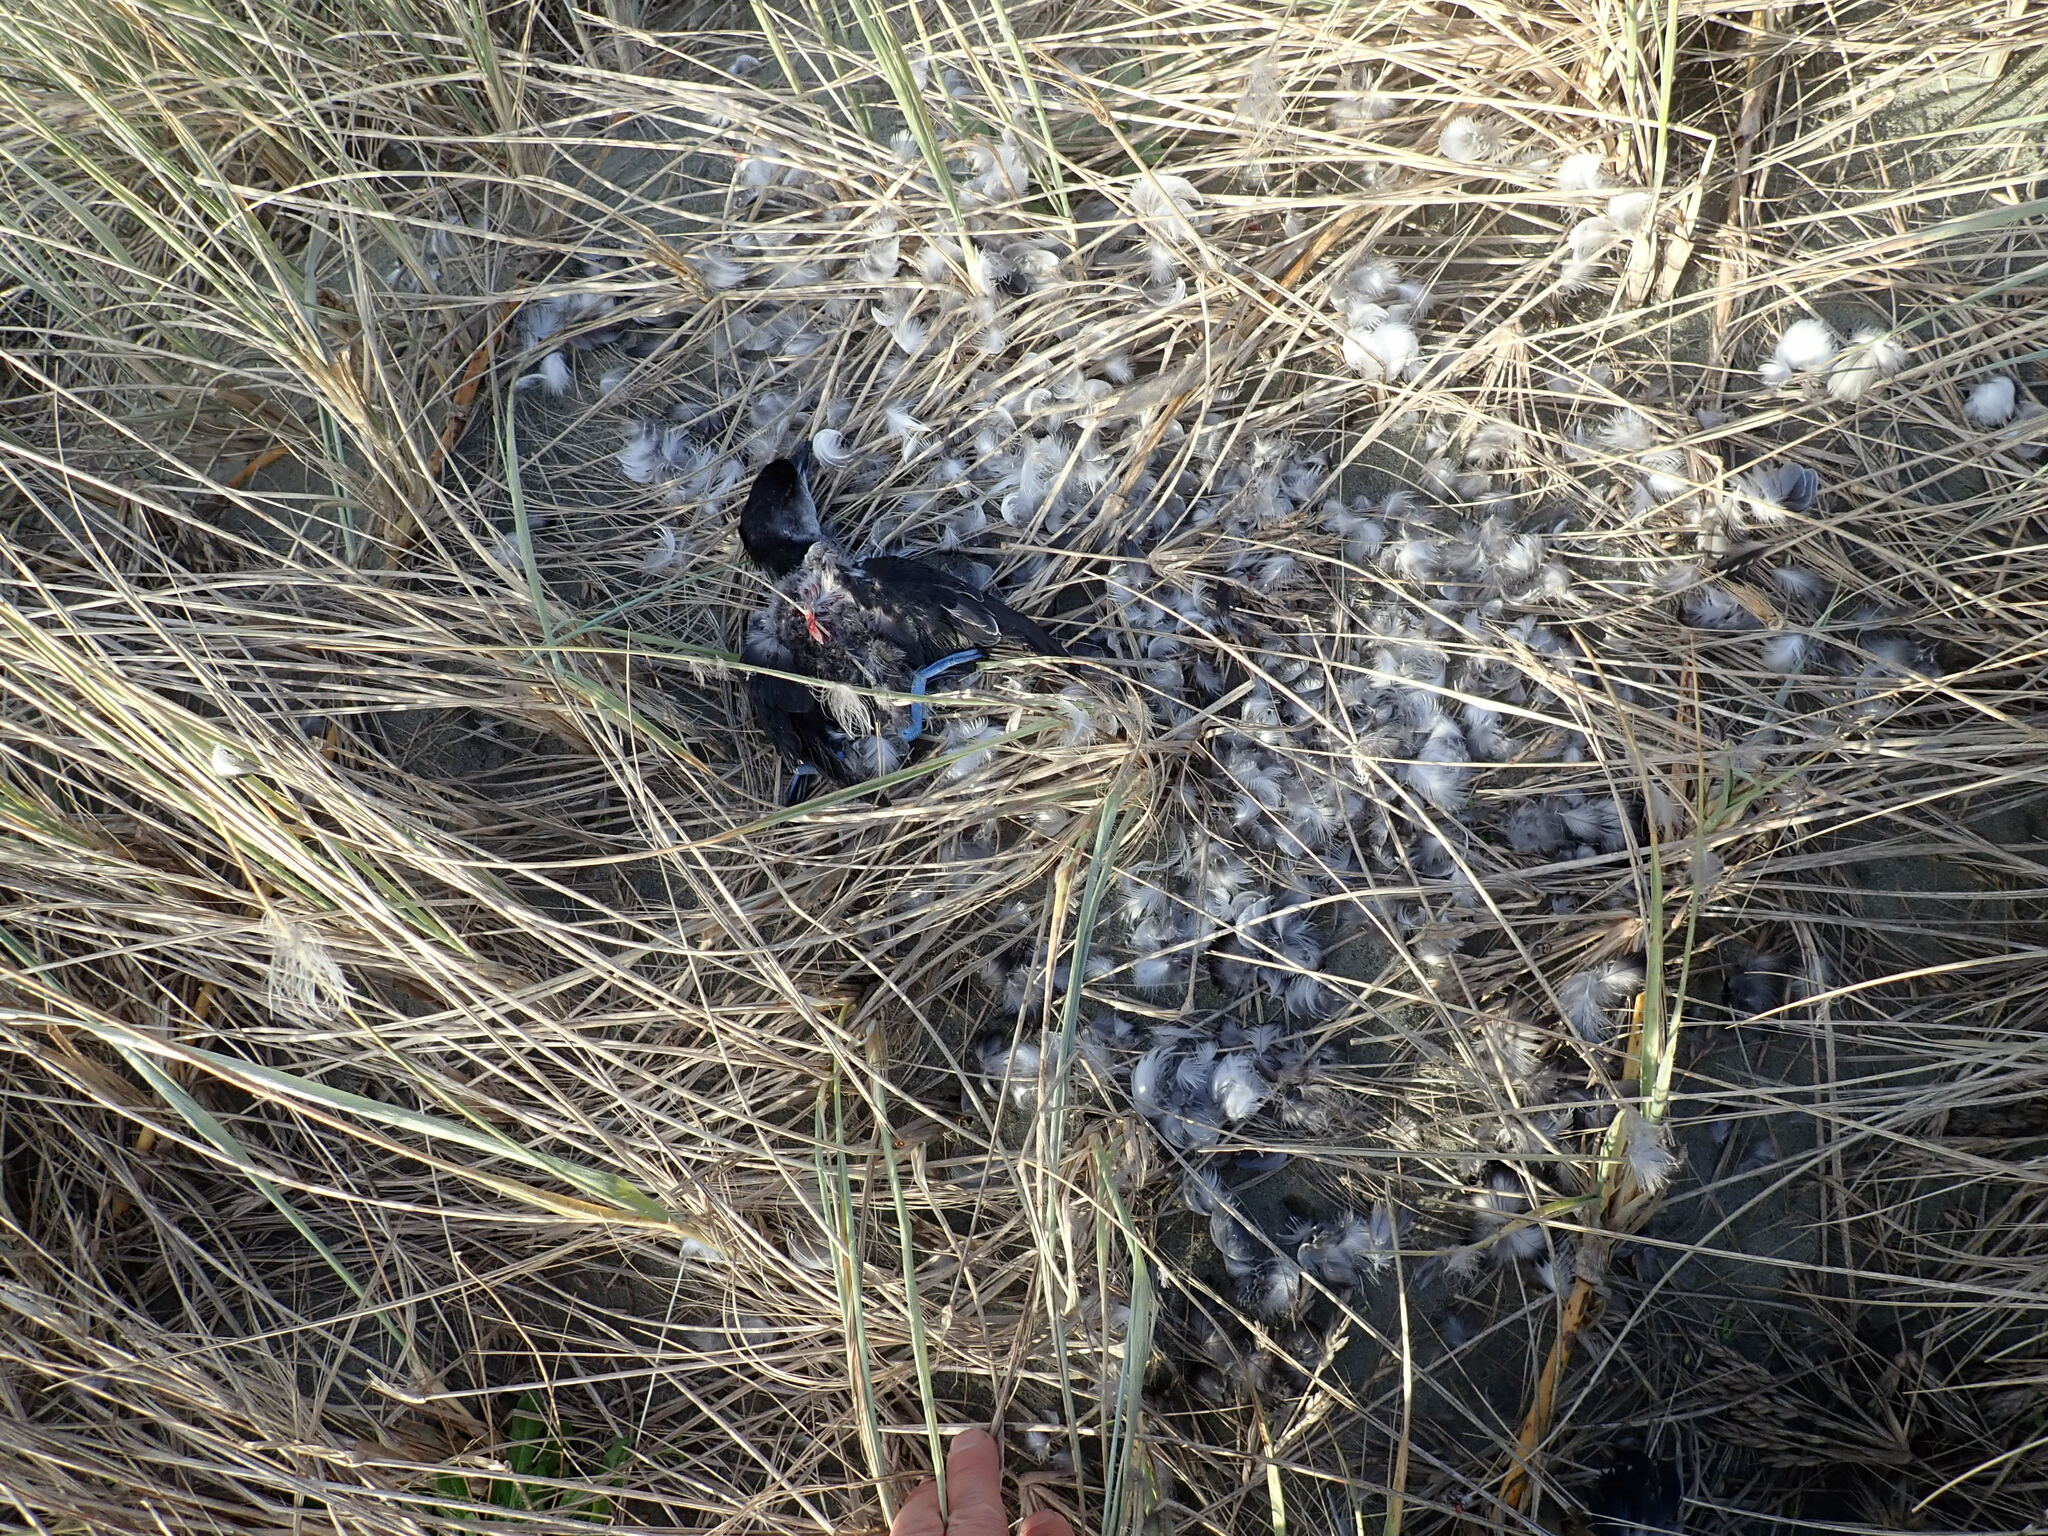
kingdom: Animalia
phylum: Chordata
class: Aves
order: Procellariiformes
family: Pelecanoididae
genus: Pelecanoides
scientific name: Pelecanoides urinatrix
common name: Common diving-petrel
